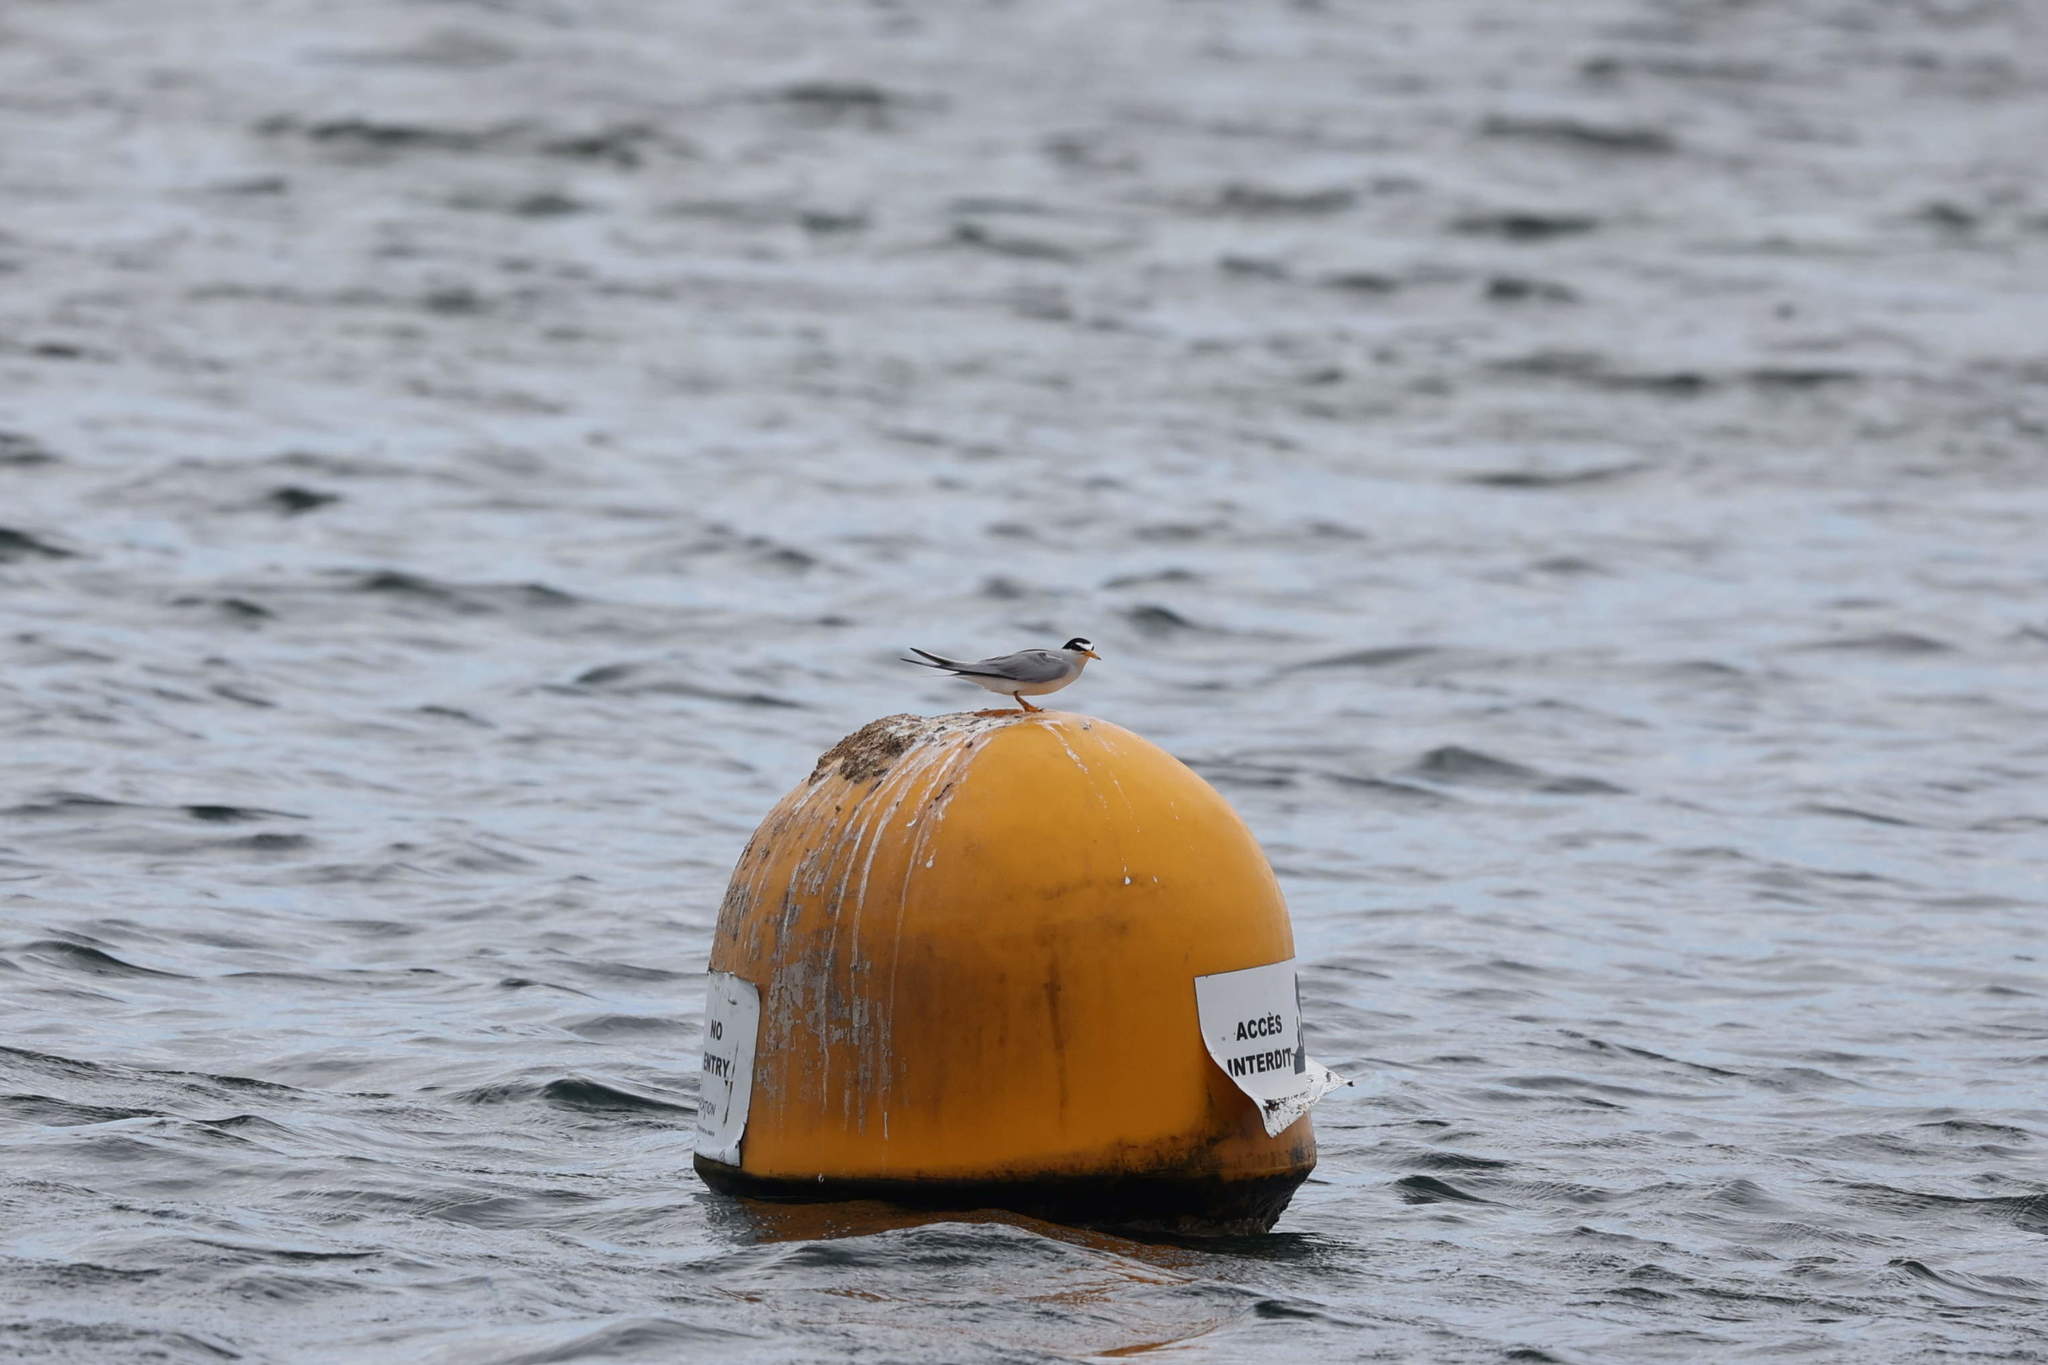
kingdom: Animalia
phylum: Chordata
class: Aves
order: Charadriiformes
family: Laridae
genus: Sternula
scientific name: Sternula antillarum
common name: Least tern
